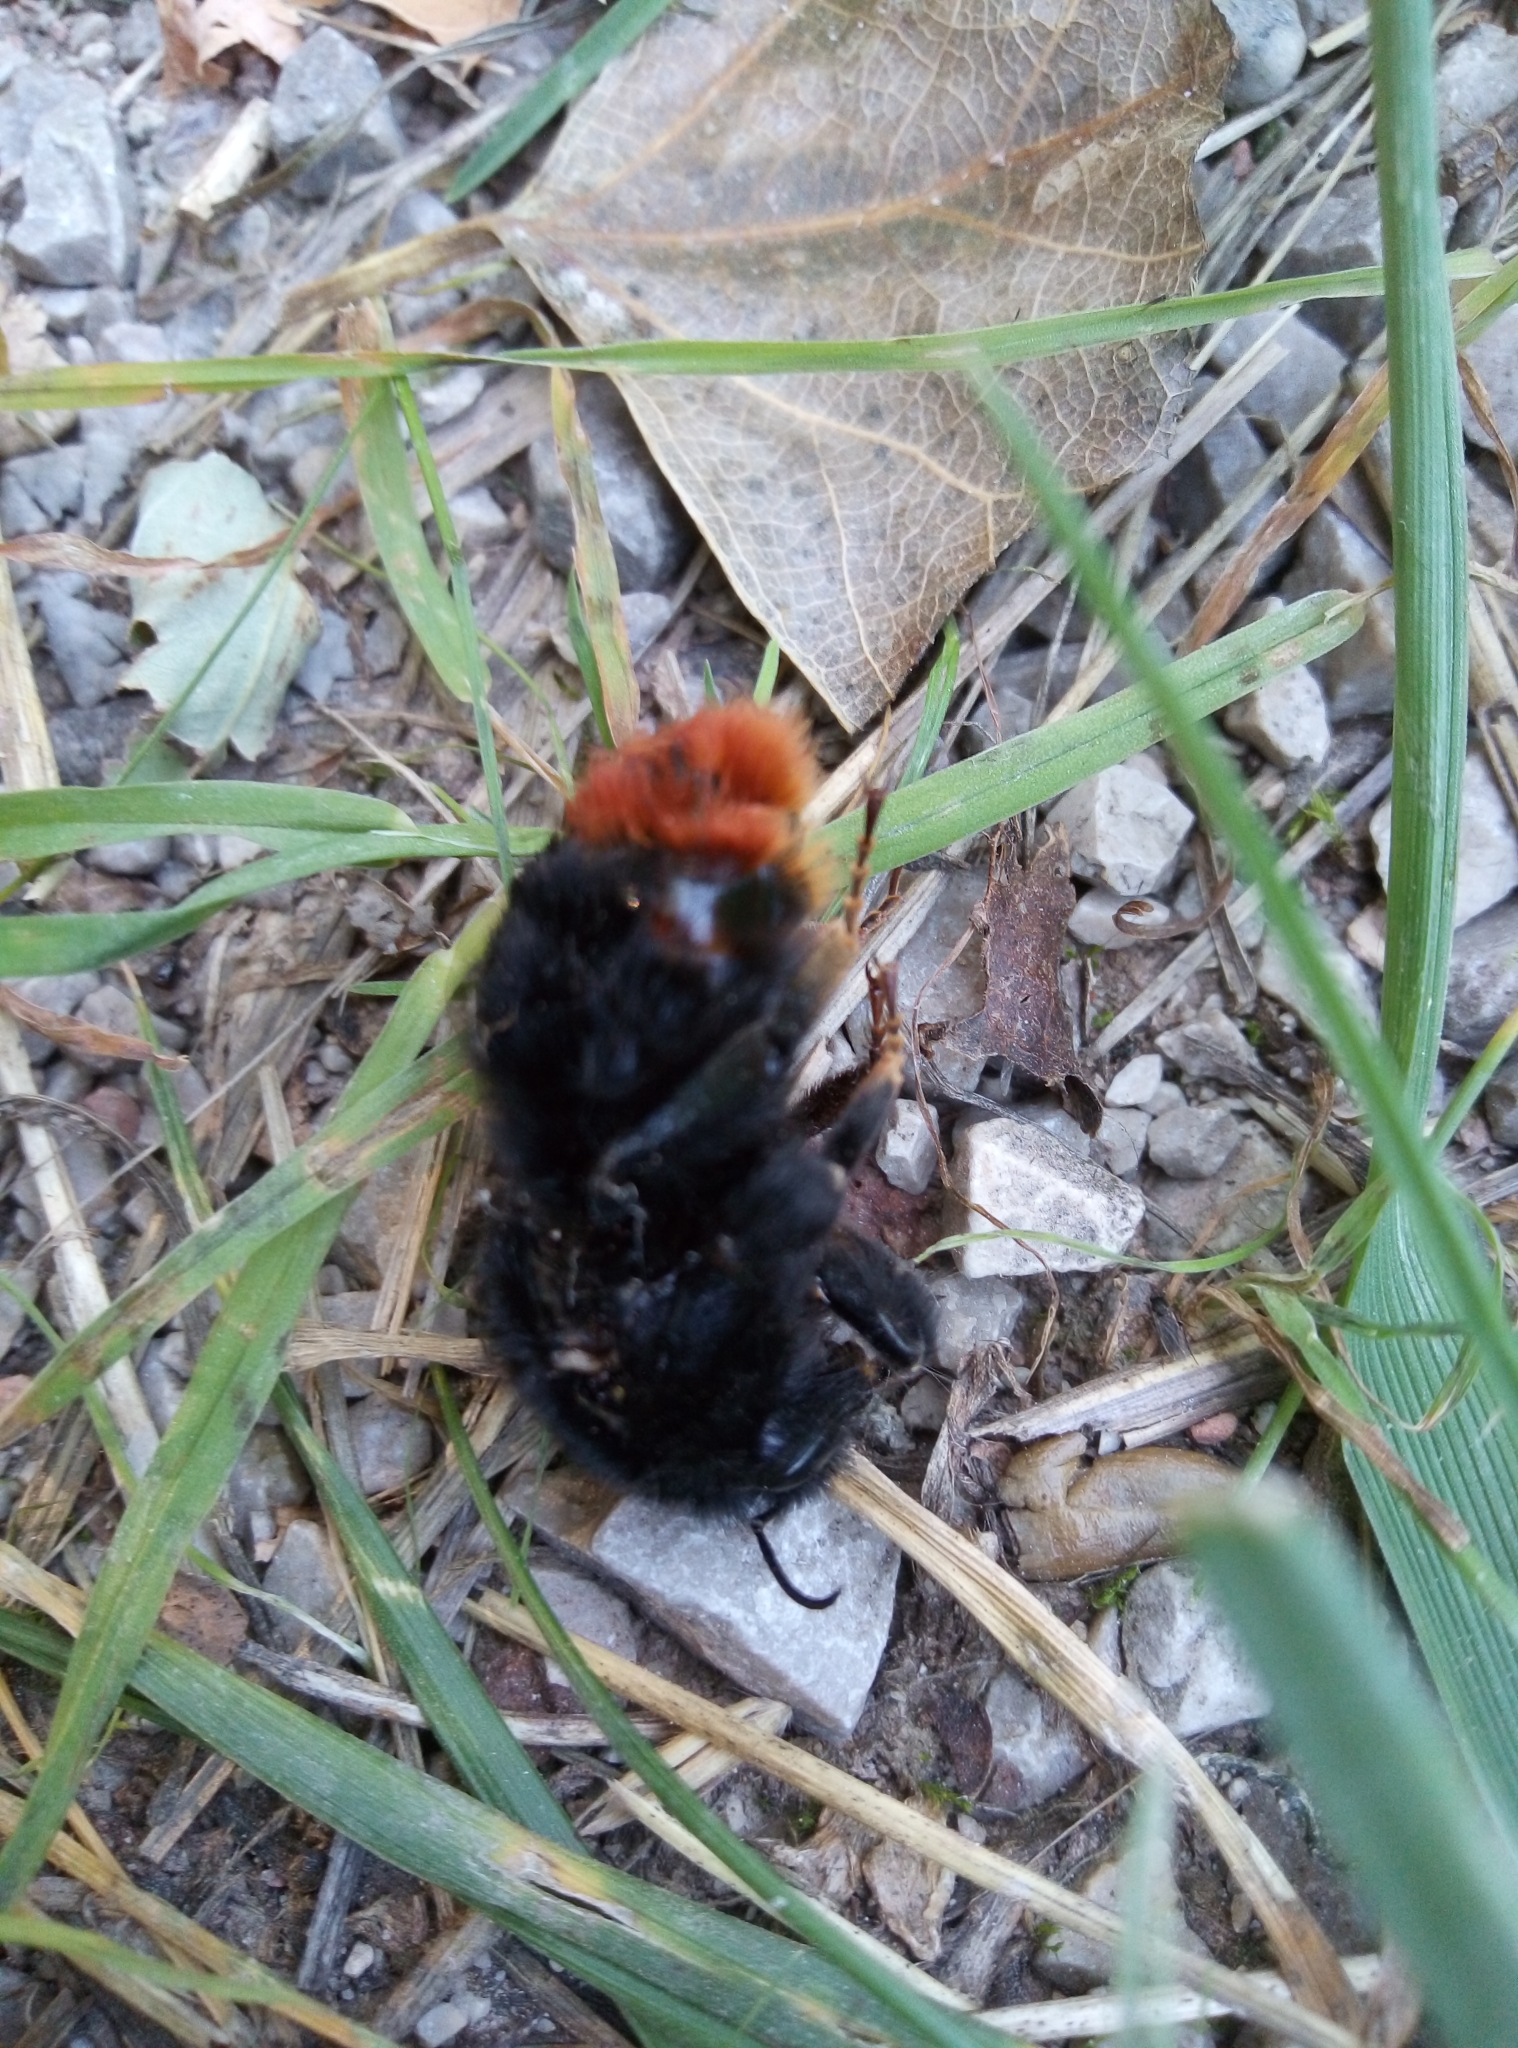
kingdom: Animalia
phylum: Arthropoda
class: Insecta
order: Hymenoptera
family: Apidae
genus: Bombus
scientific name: Bombus lapidarius
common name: Large red-tailed humble-bee
